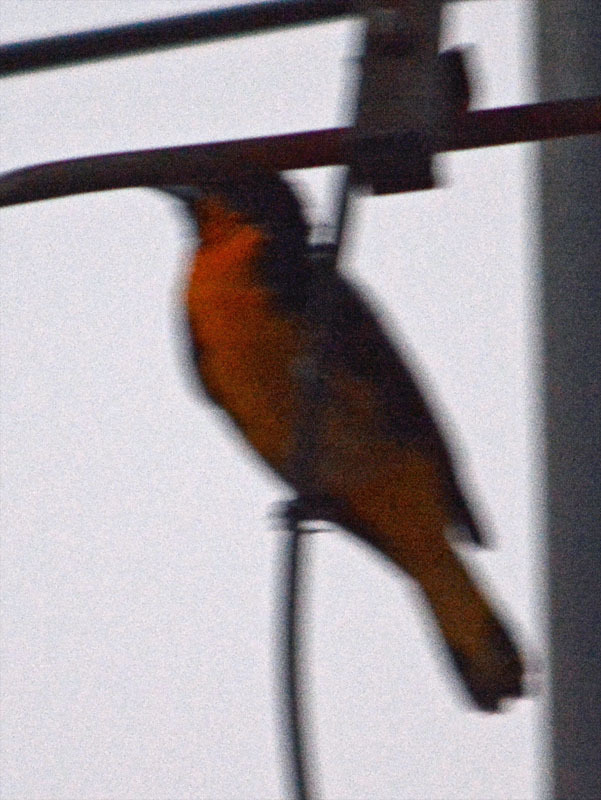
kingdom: Animalia
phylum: Chordata
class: Aves
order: Passeriformes
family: Icteridae
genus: Icterus
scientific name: Icterus abeillei
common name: Black-backed oriole
